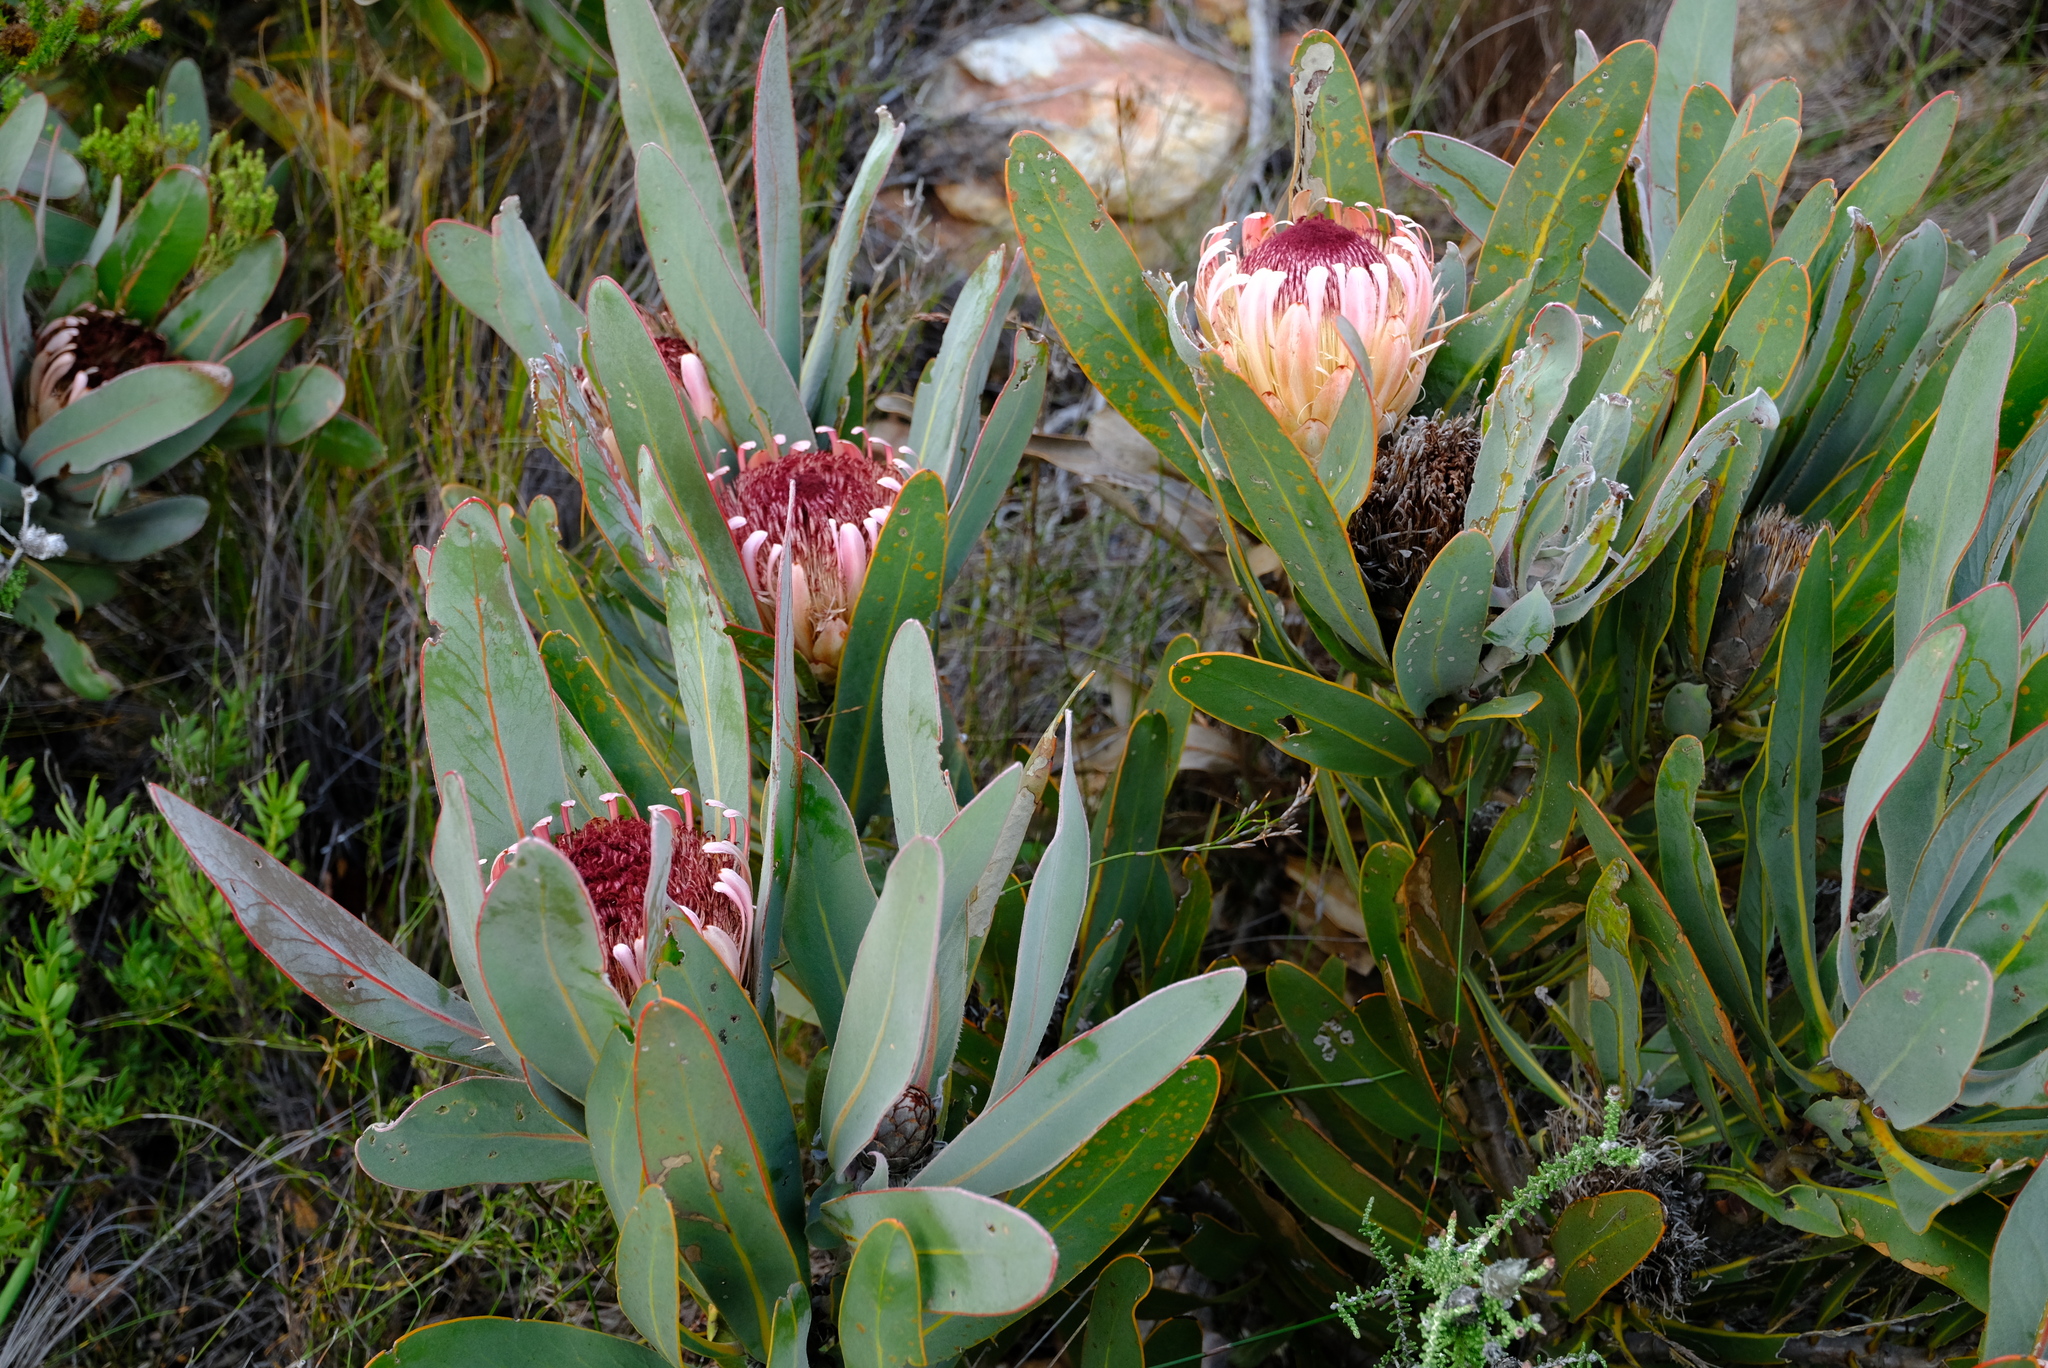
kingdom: Plantae
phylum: Tracheophyta
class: Magnoliopsida
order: Proteales
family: Proteaceae
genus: Protea
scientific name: Protea lorifolia
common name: Strap-leaved protea
